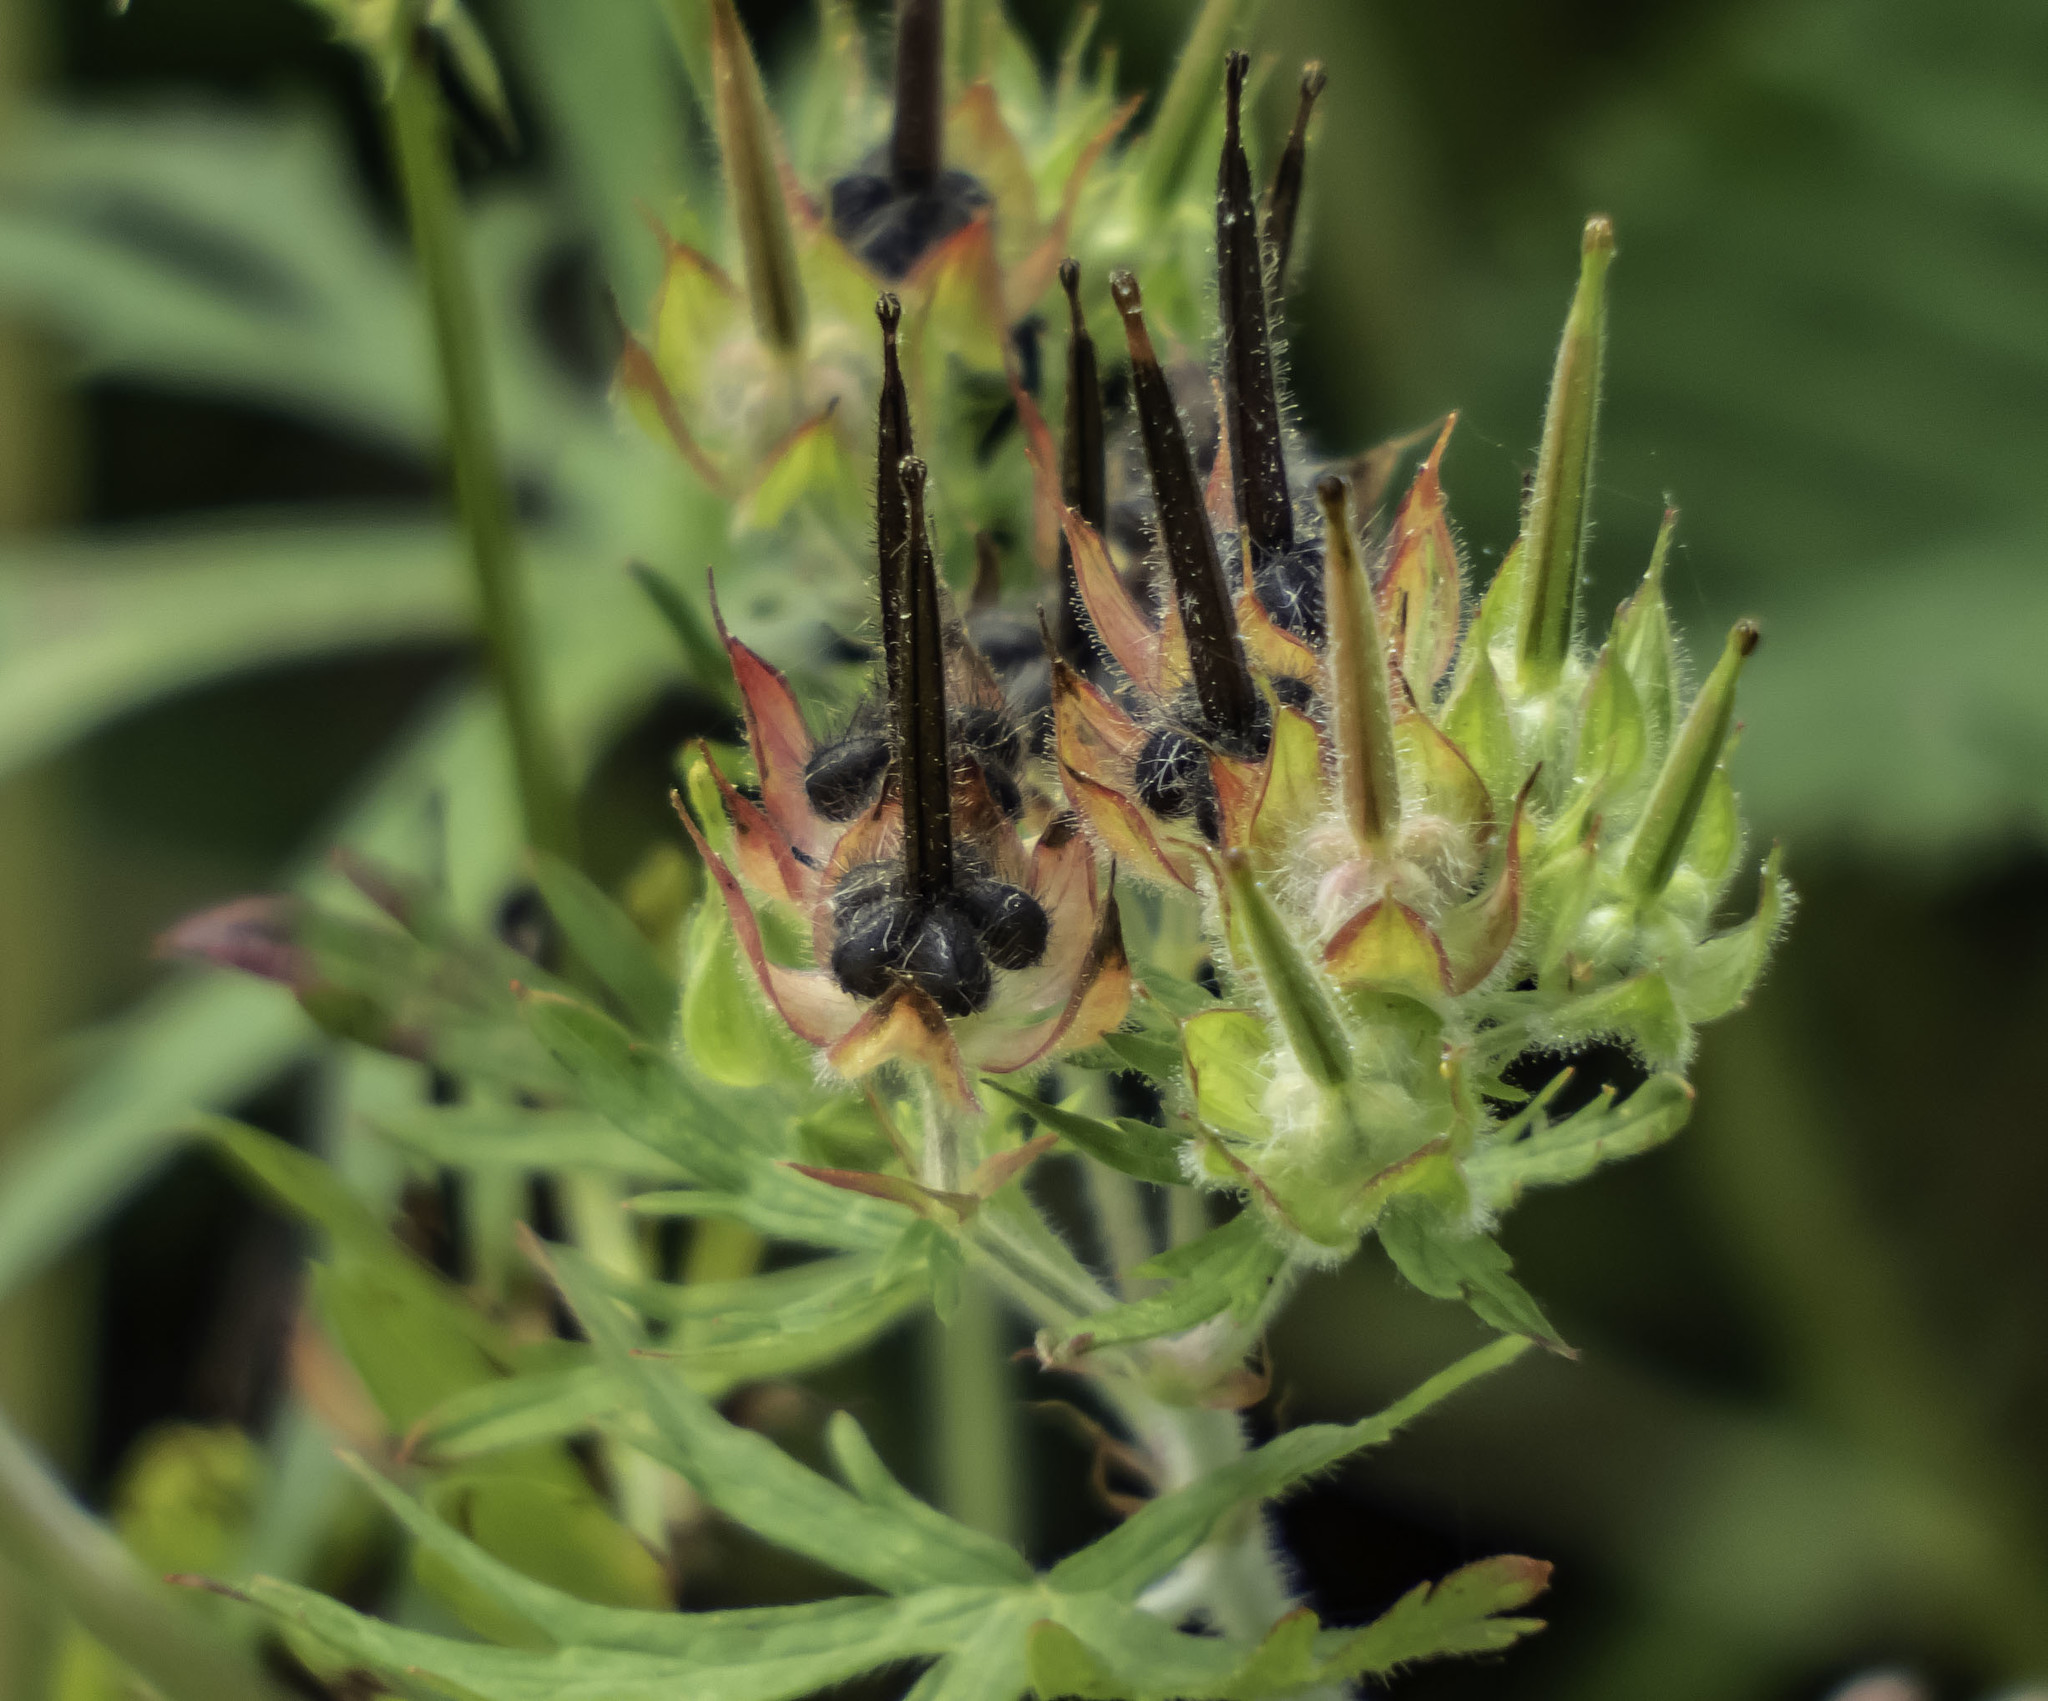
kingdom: Plantae
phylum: Tracheophyta
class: Magnoliopsida
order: Geraniales
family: Geraniaceae
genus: Geranium
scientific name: Geranium carolinianum
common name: Carolina crane's-bill
